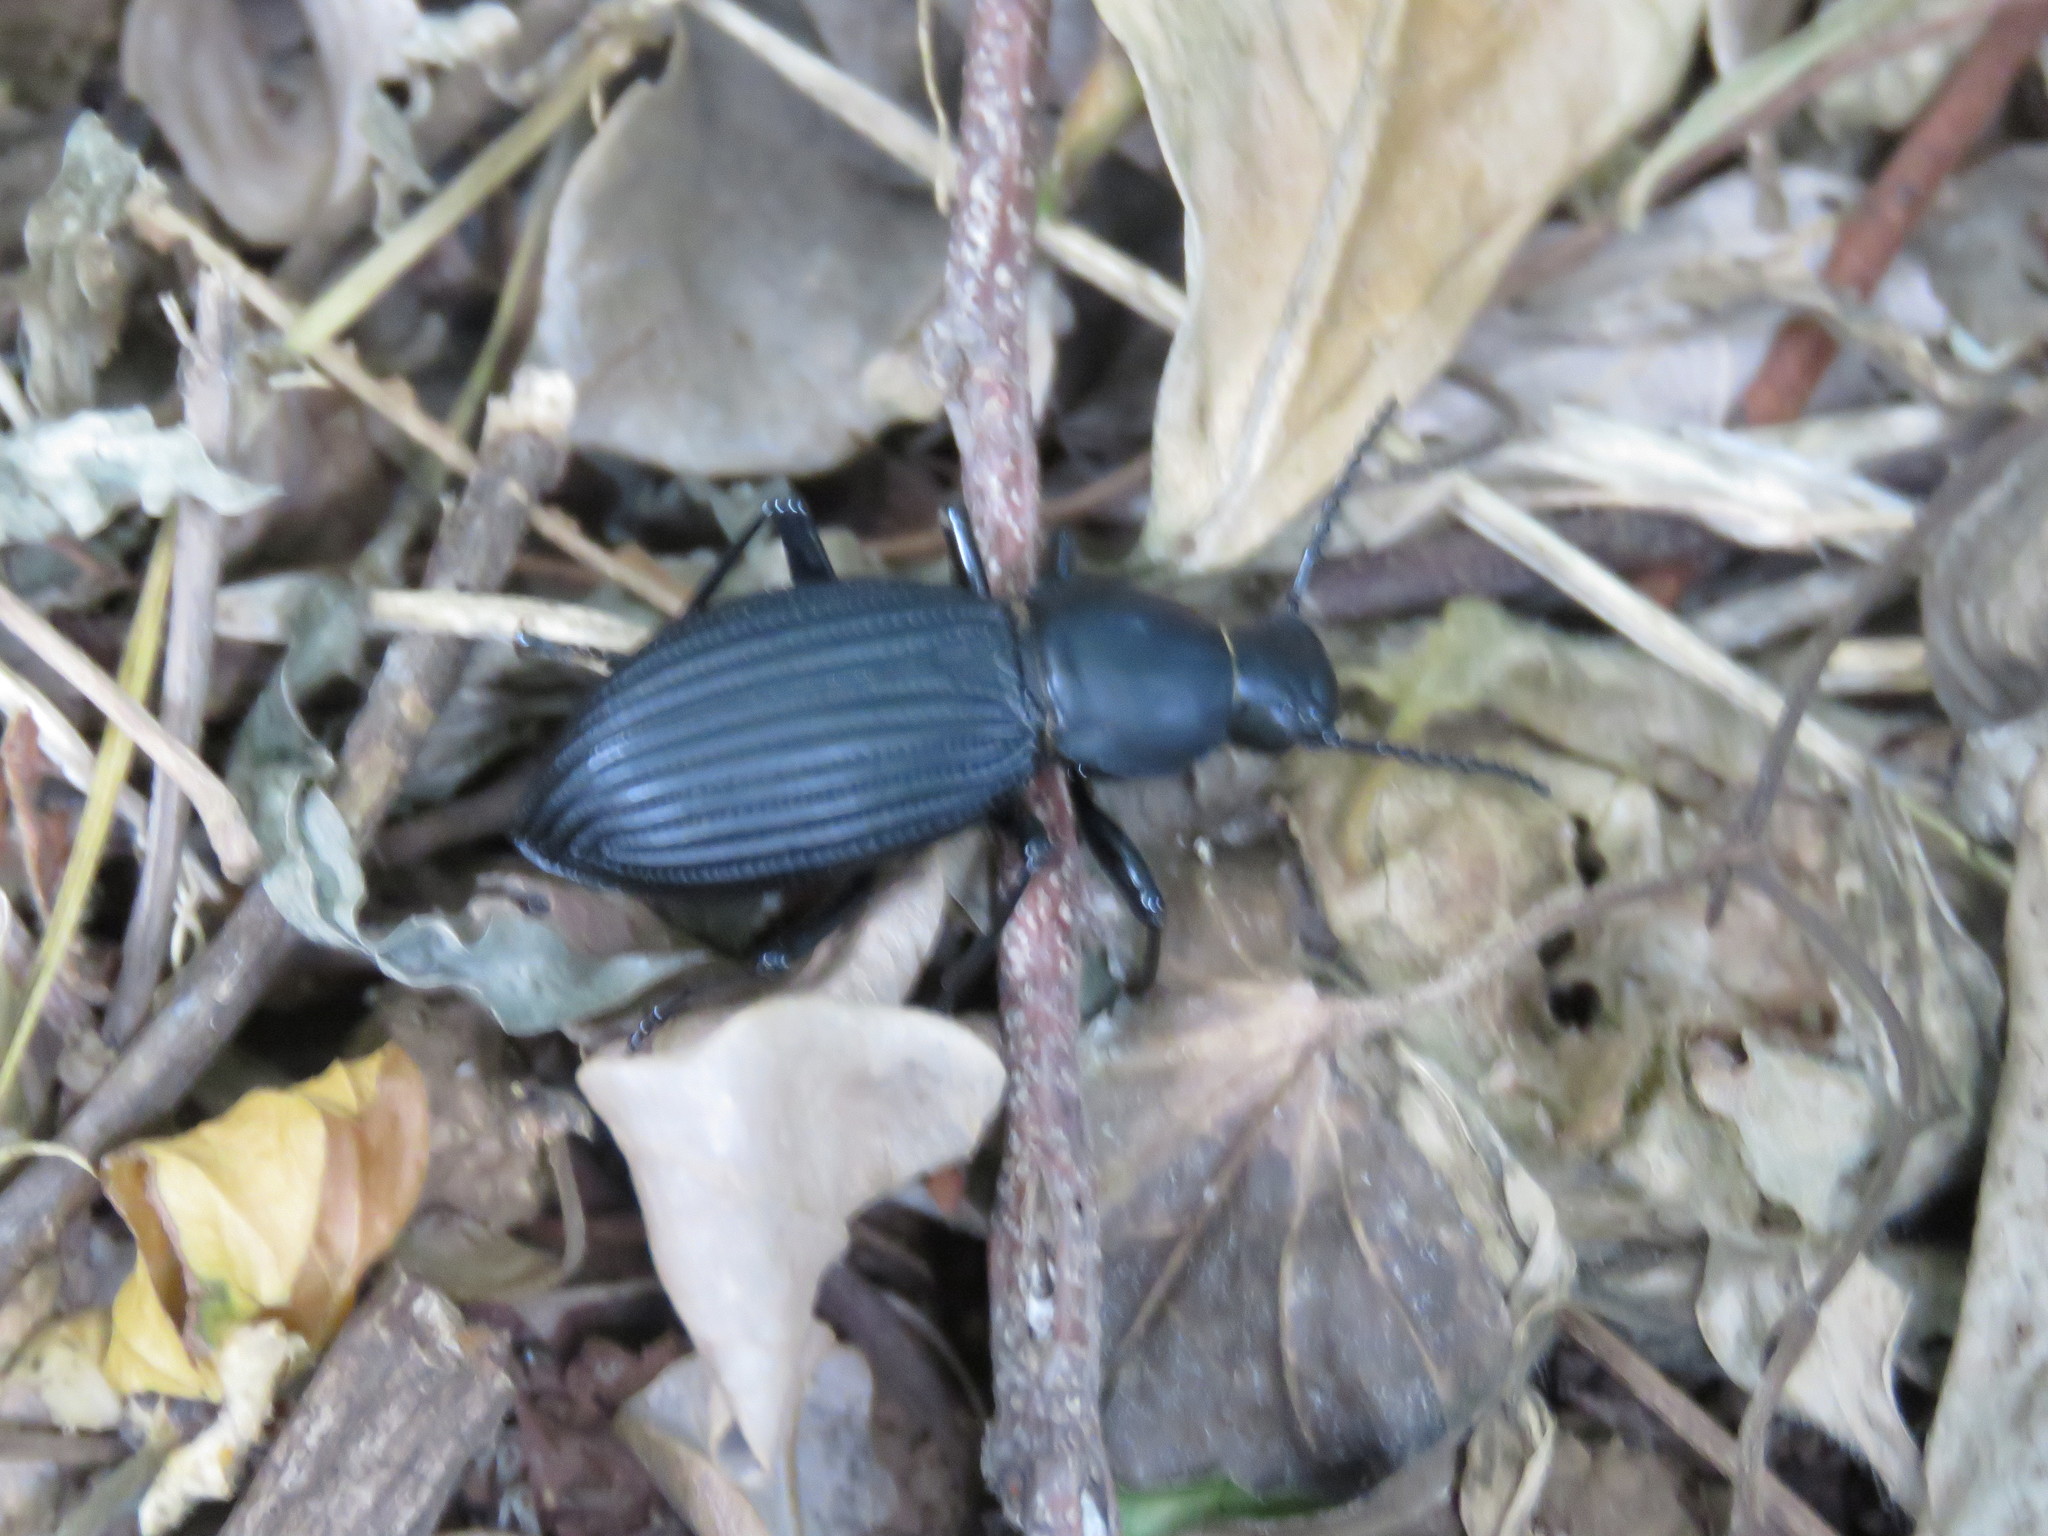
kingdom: Animalia
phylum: Arthropoda
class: Insecta
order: Coleoptera
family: Tenebrionidae
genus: Rhinandrus
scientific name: Rhinandrus elongatus
